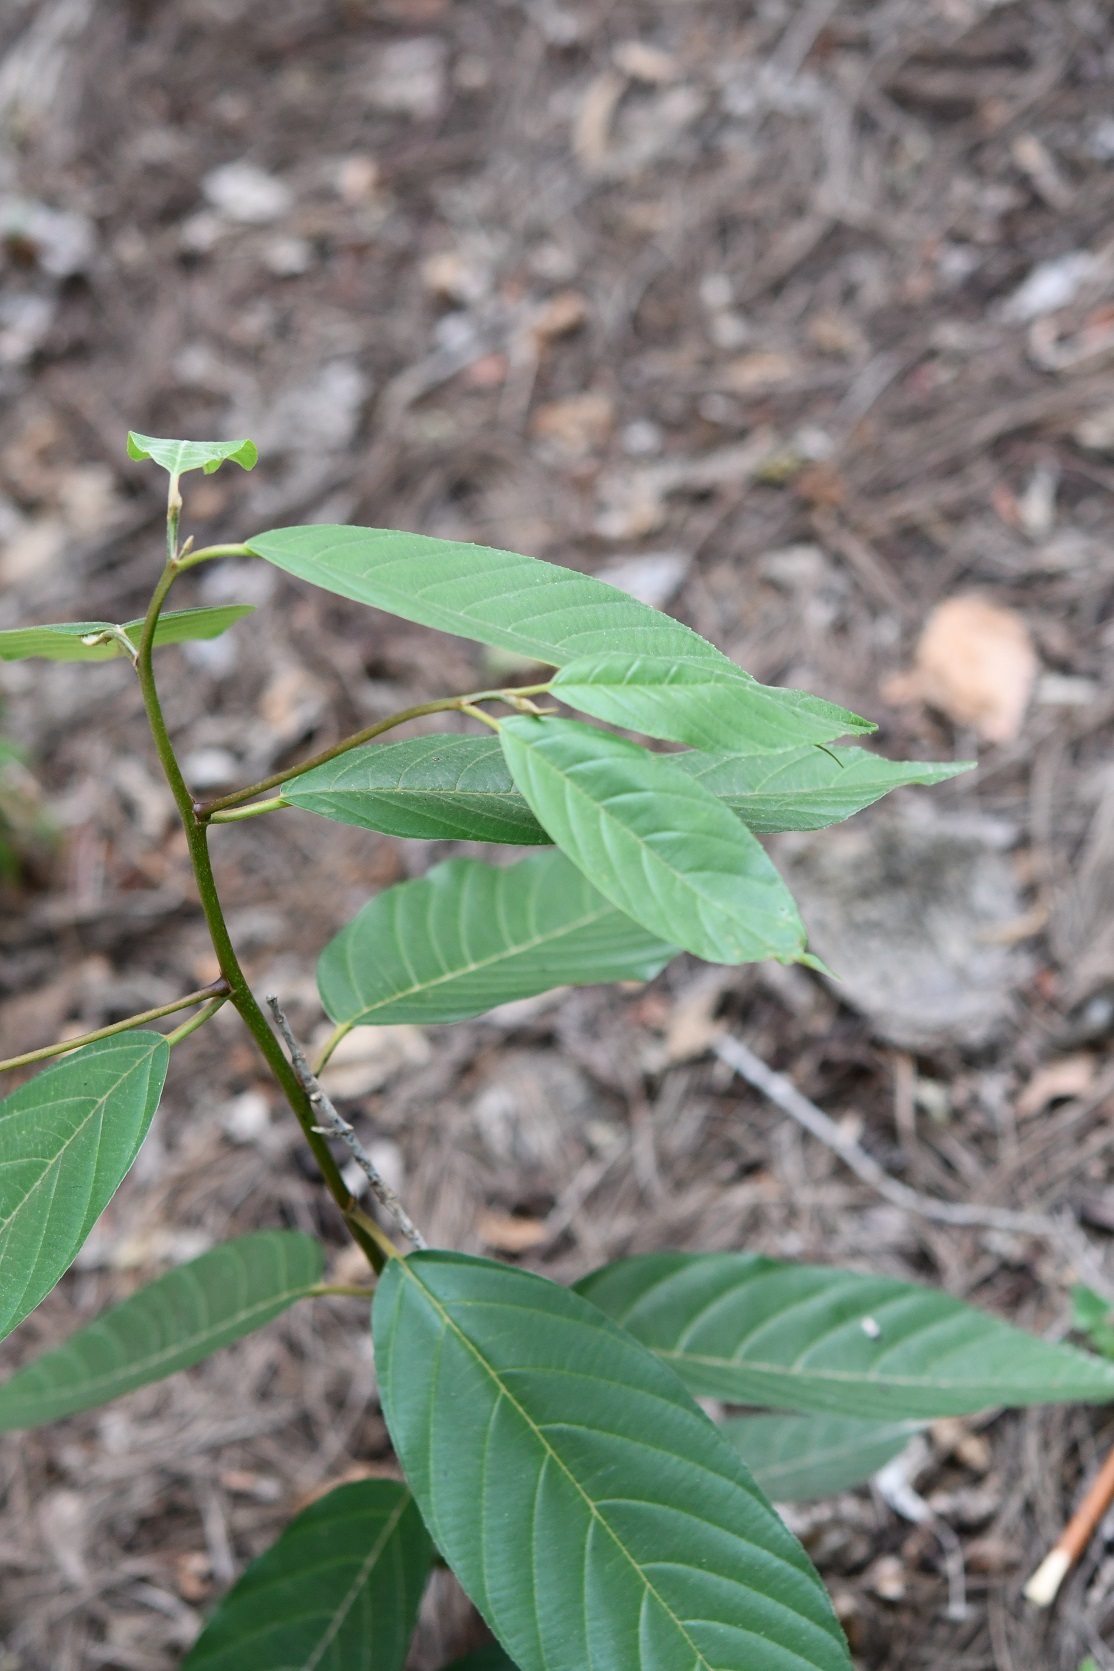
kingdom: Plantae
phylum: Tracheophyta
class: Magnoliopsida
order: Rosales
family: Rhamnaceae
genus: Frangula
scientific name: Frangula capreifolia
